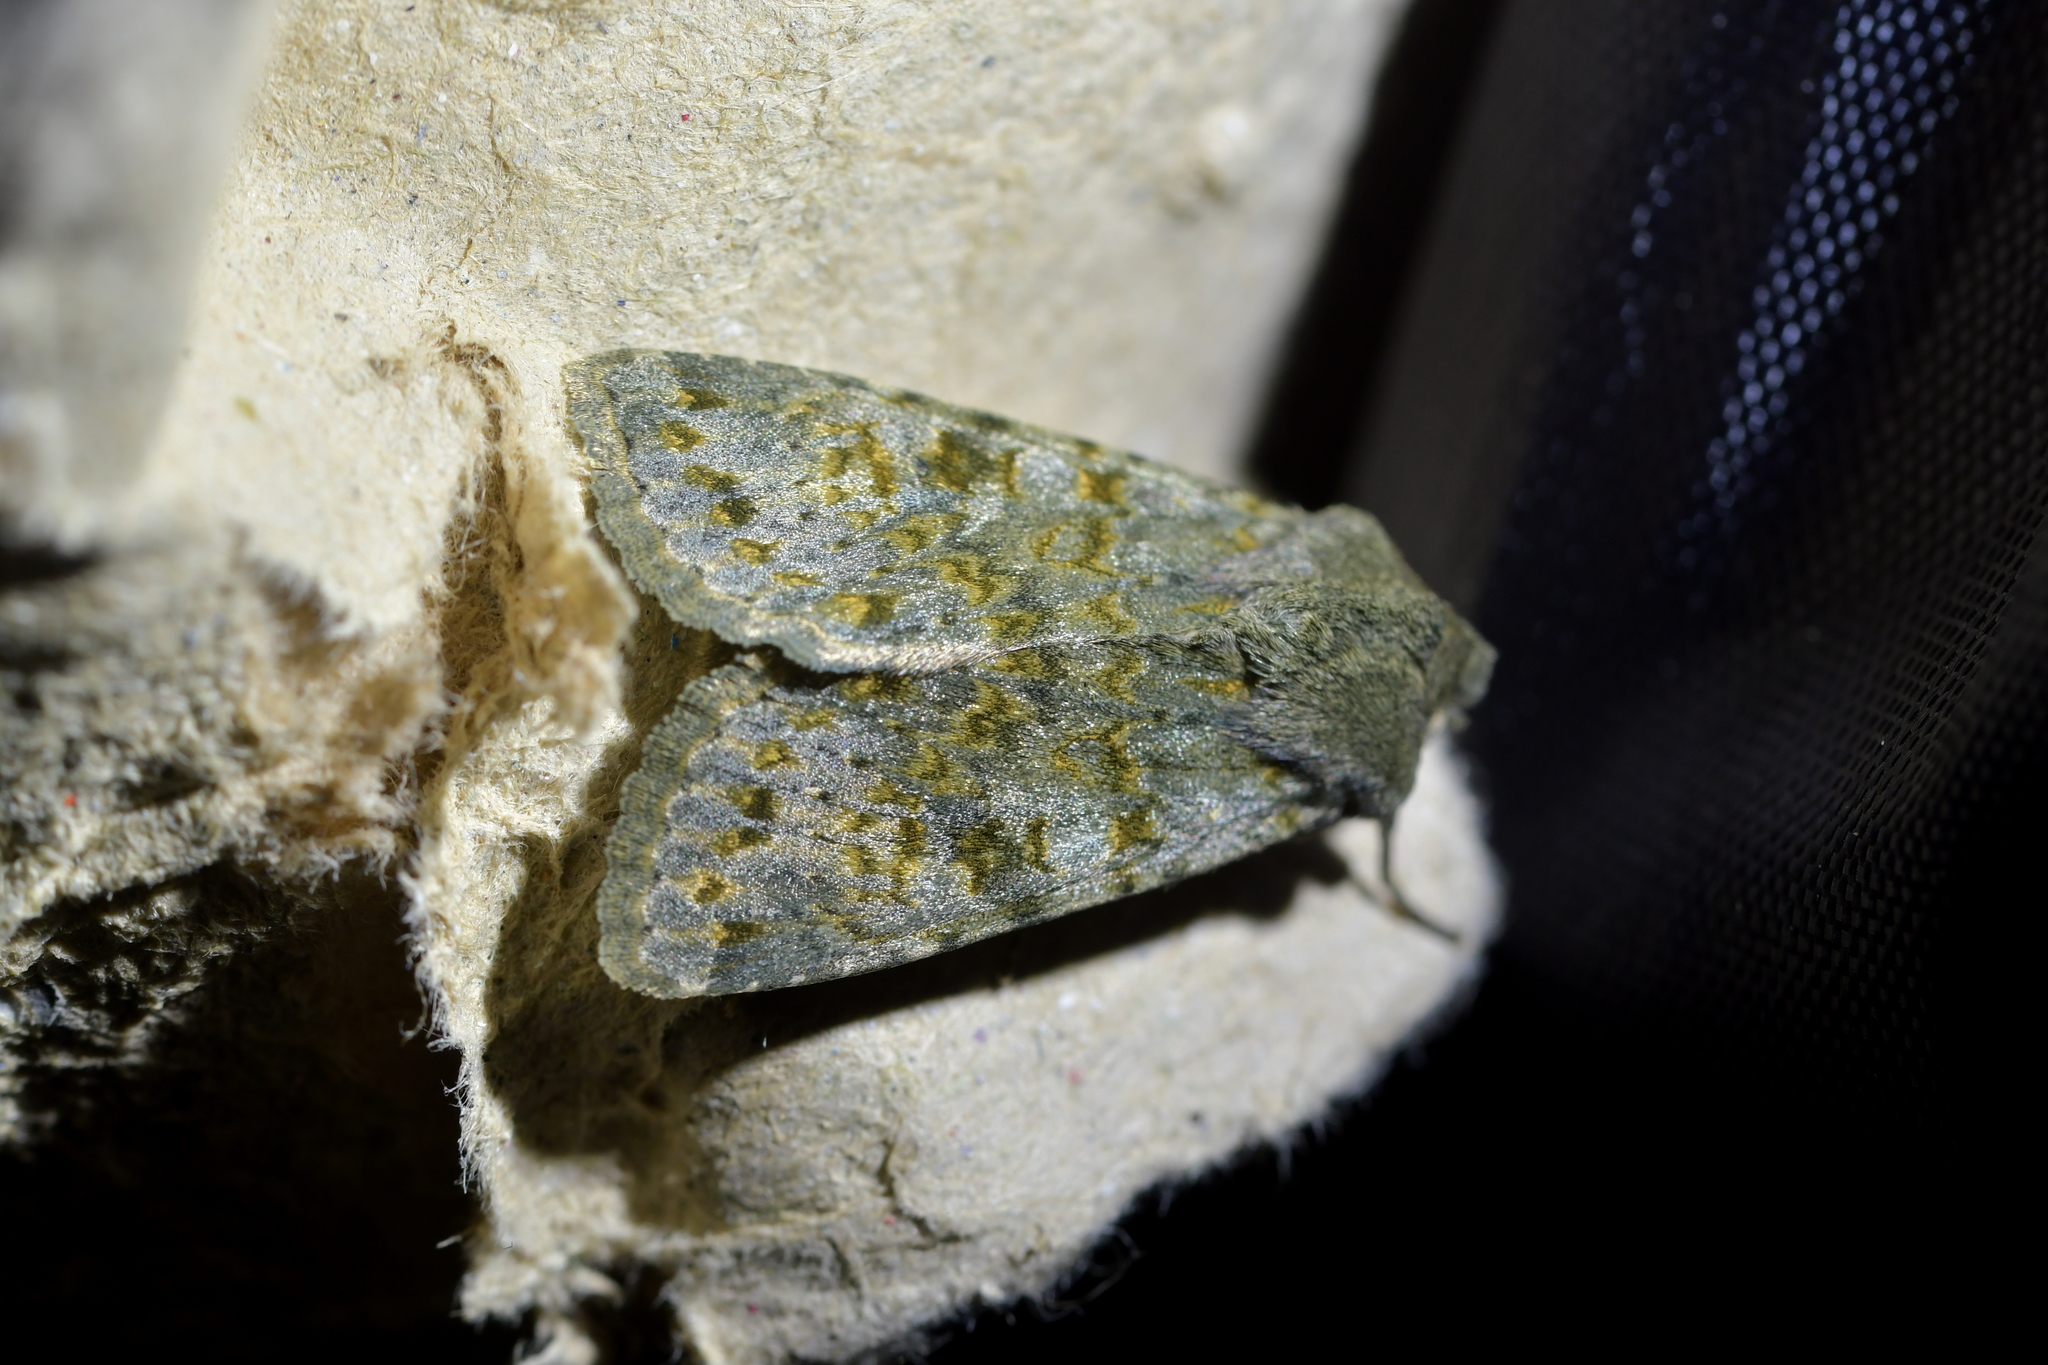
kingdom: Animalia
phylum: Arthropoda
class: Insecta
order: Lepidoptera
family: Noctuidae
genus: Ichneutica
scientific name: Ichneutica
